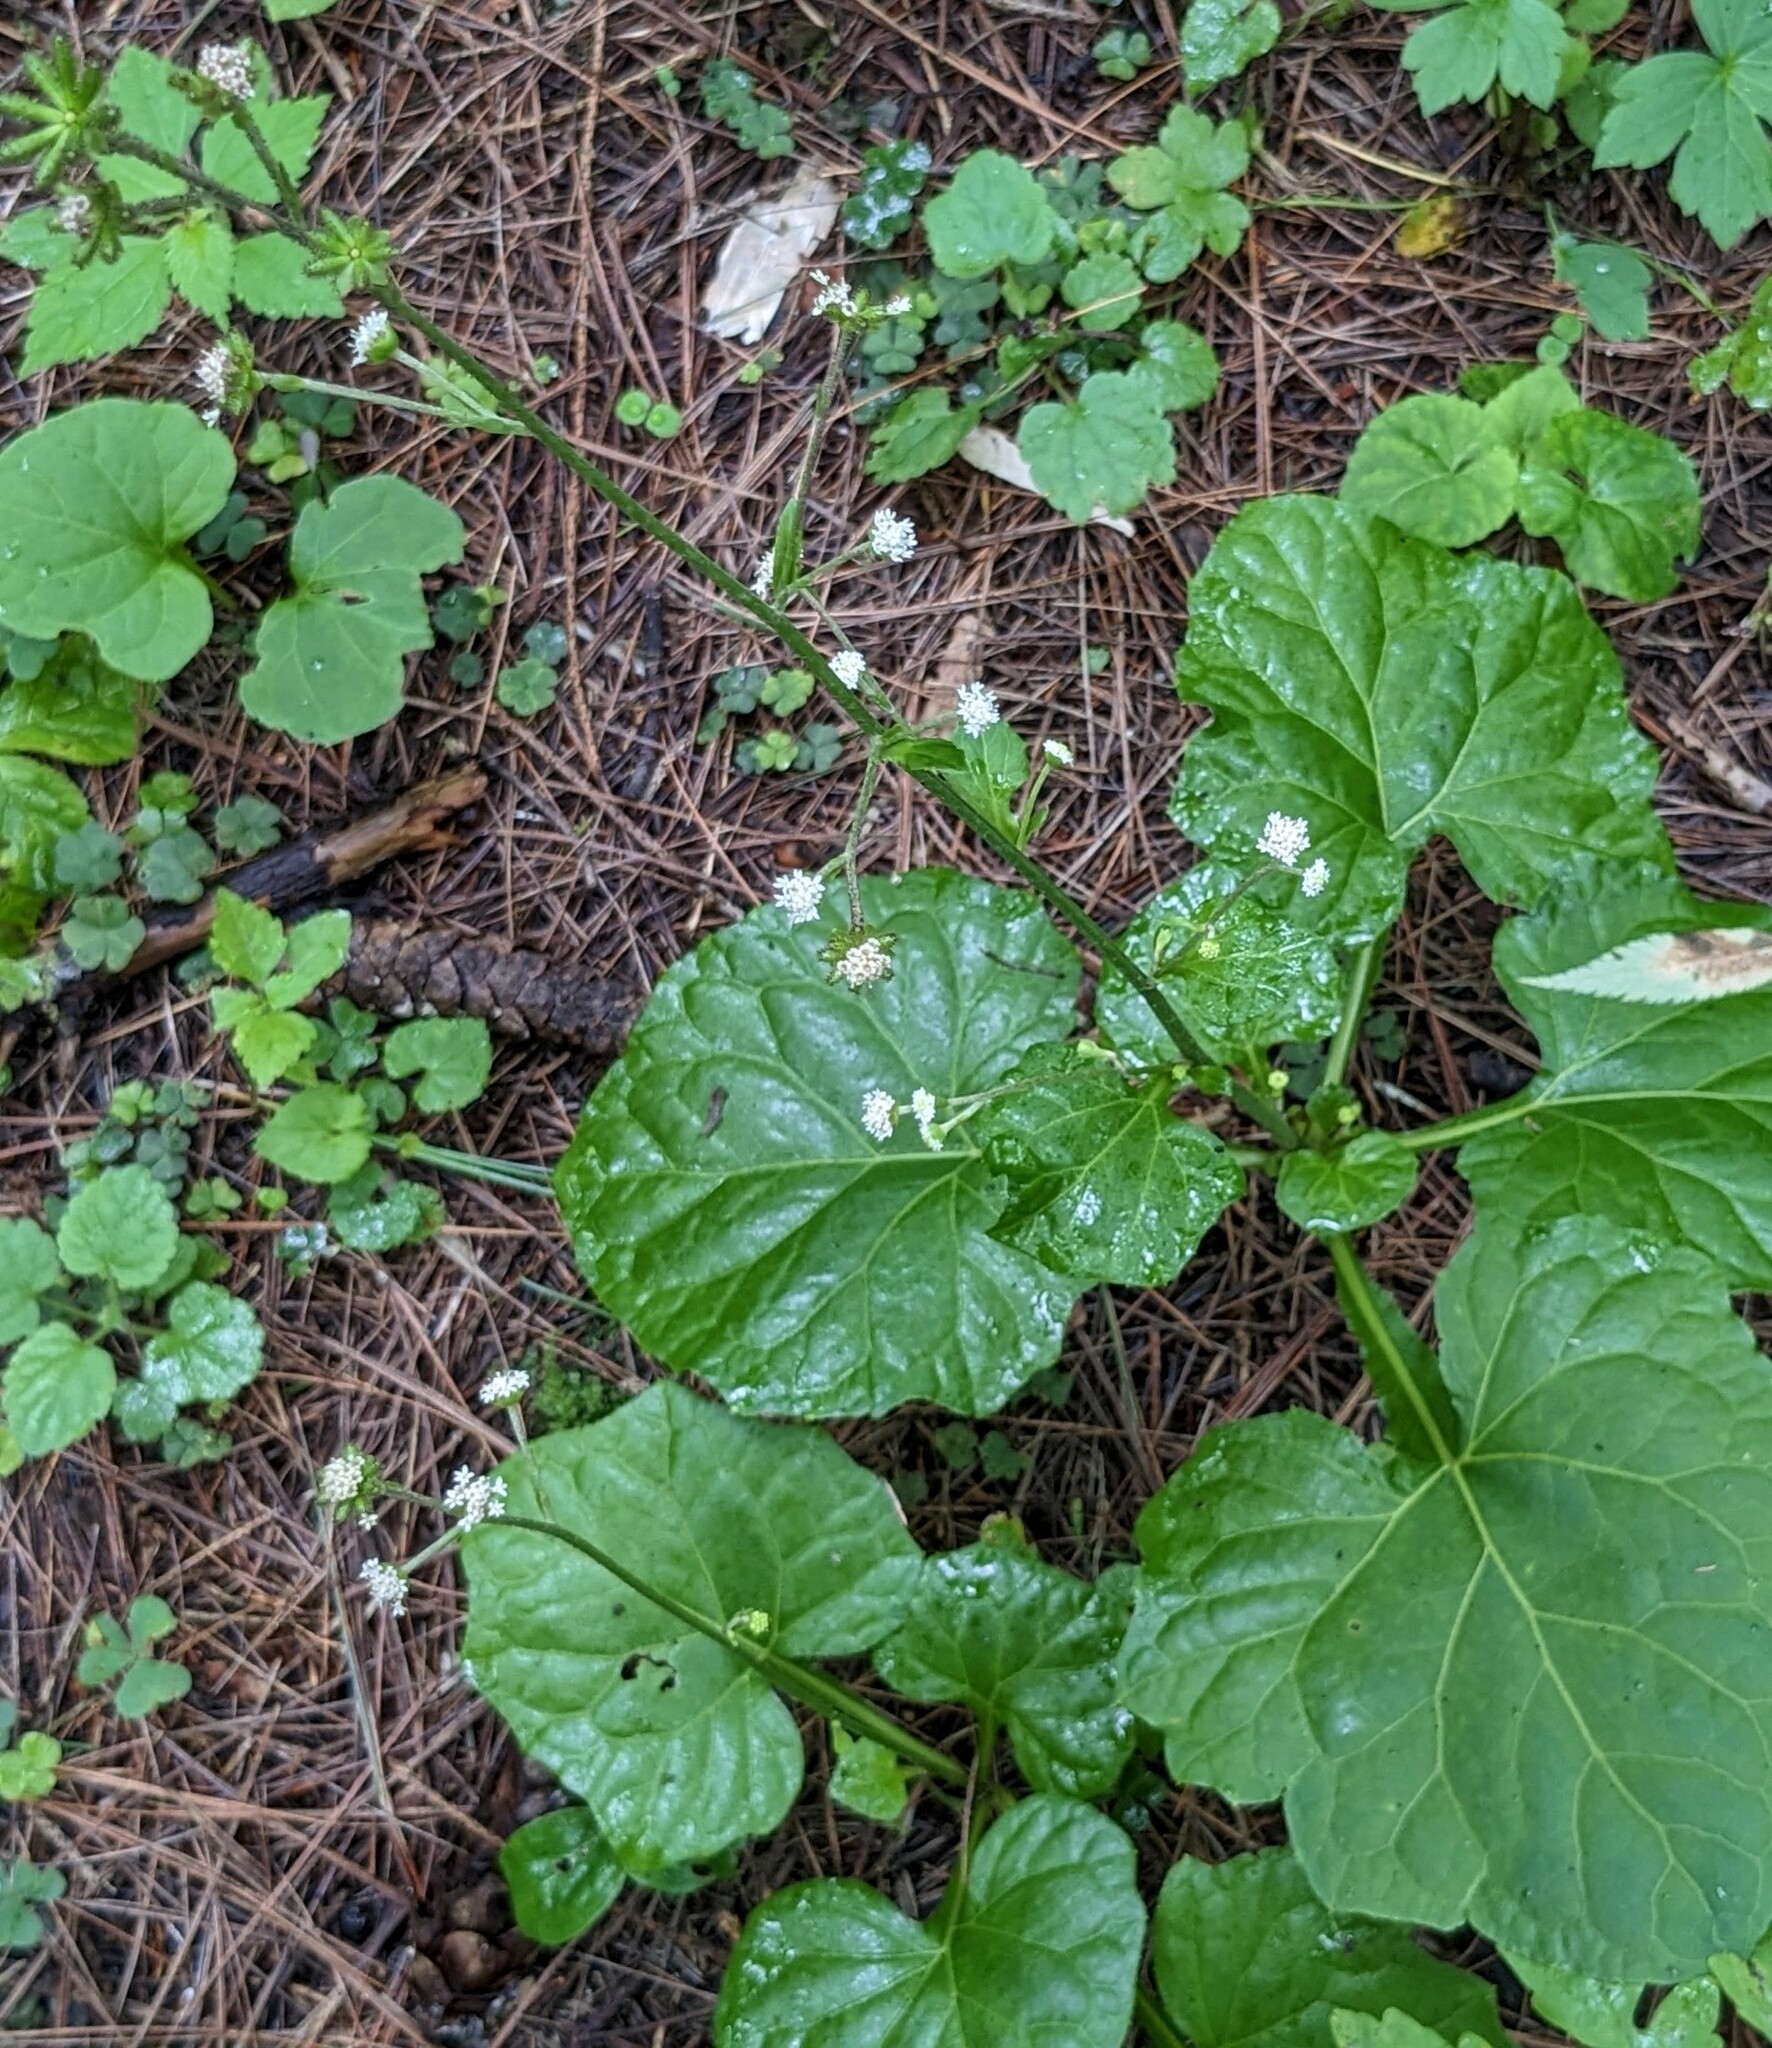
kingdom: Plantae
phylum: Tracheophyta
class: Magnoliopsida
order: Asterales
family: Asteraceae
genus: Adenocaulon
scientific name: Adenocaulon himalaicum
